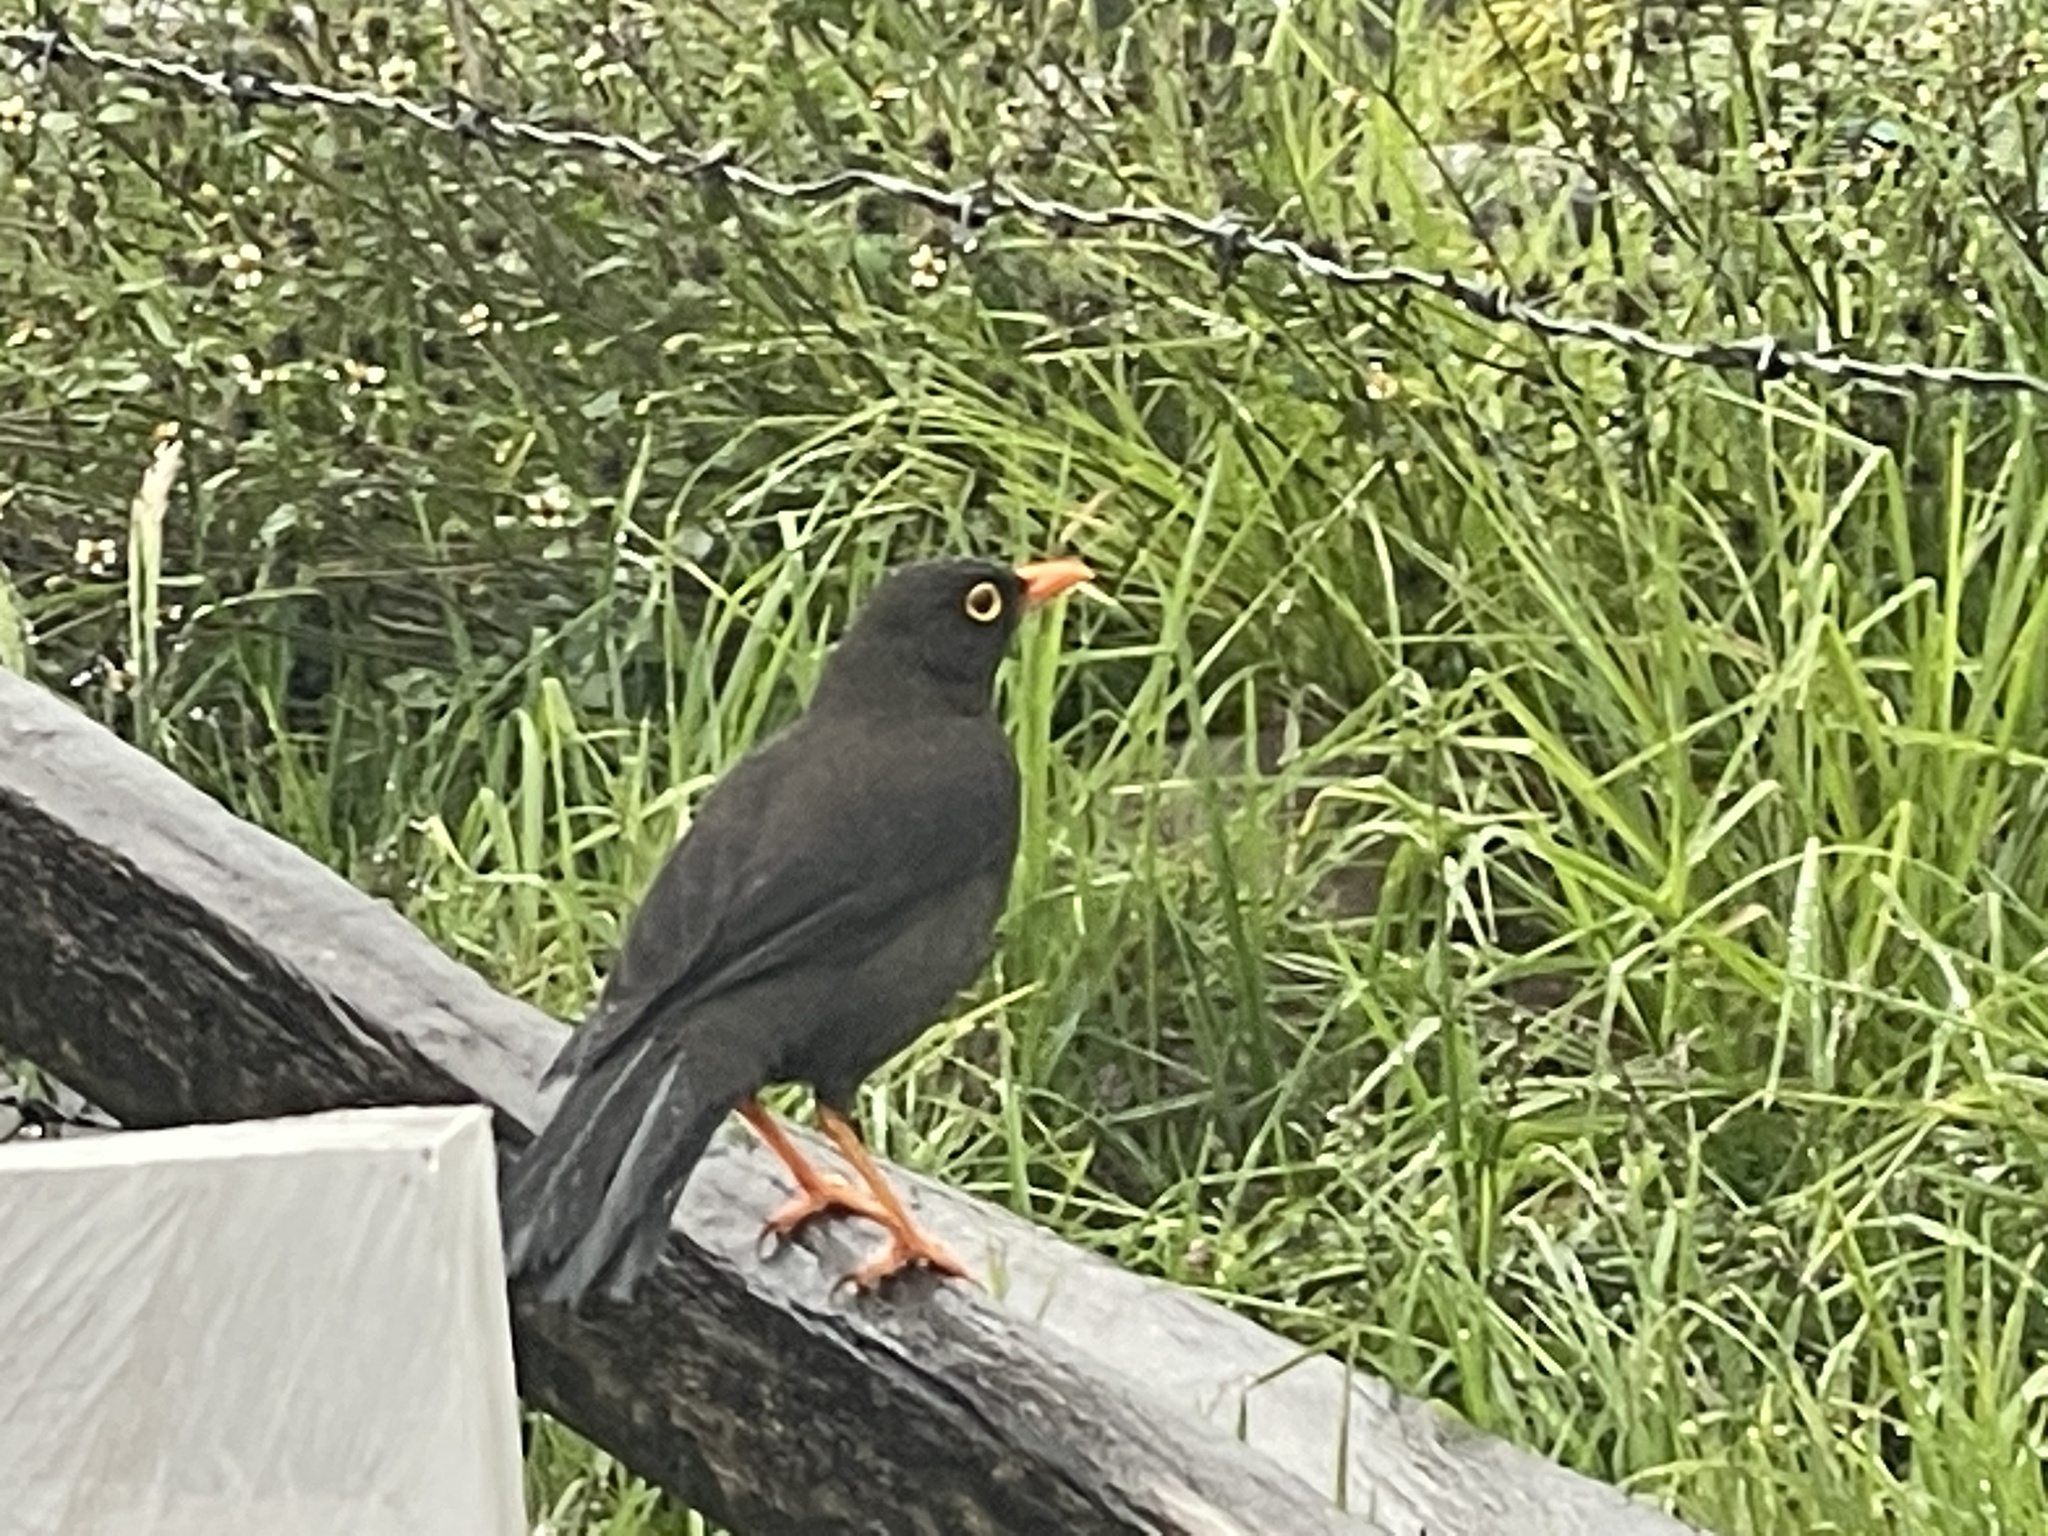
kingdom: Animalia
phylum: Chordata
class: Aves
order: Passeriformes
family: Turdidae
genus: Turdus
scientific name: Turdus fuscater
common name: Great thrush
